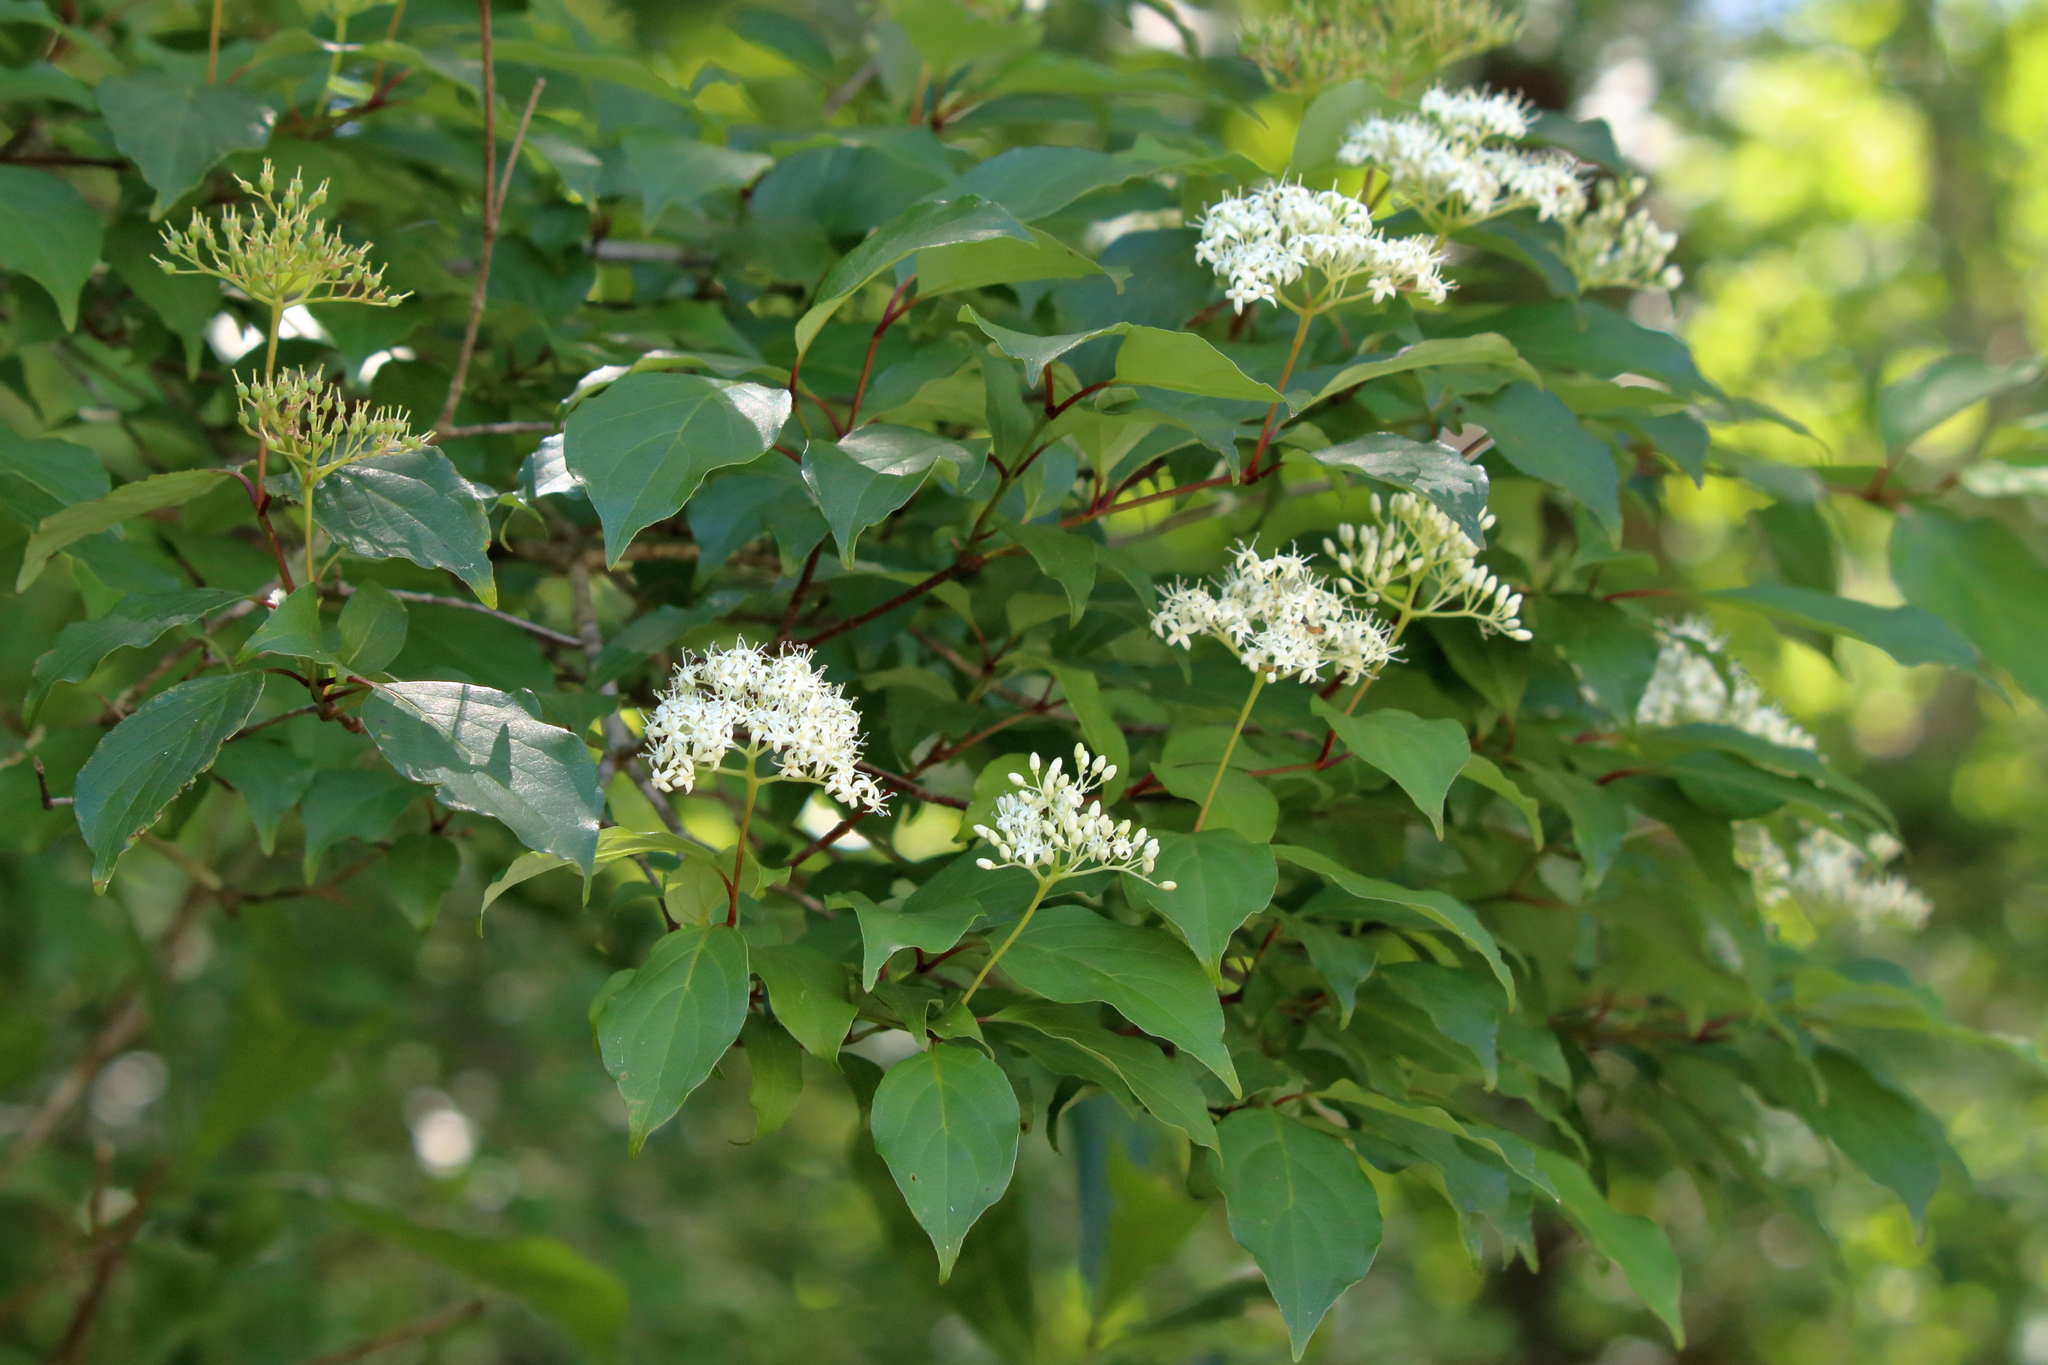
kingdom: Plantae
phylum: Tracheophyta
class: Magnoliopsida
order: Cornales
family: Cornaceae
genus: Cornus
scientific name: Cornus foemina
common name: Swamp dogwood
